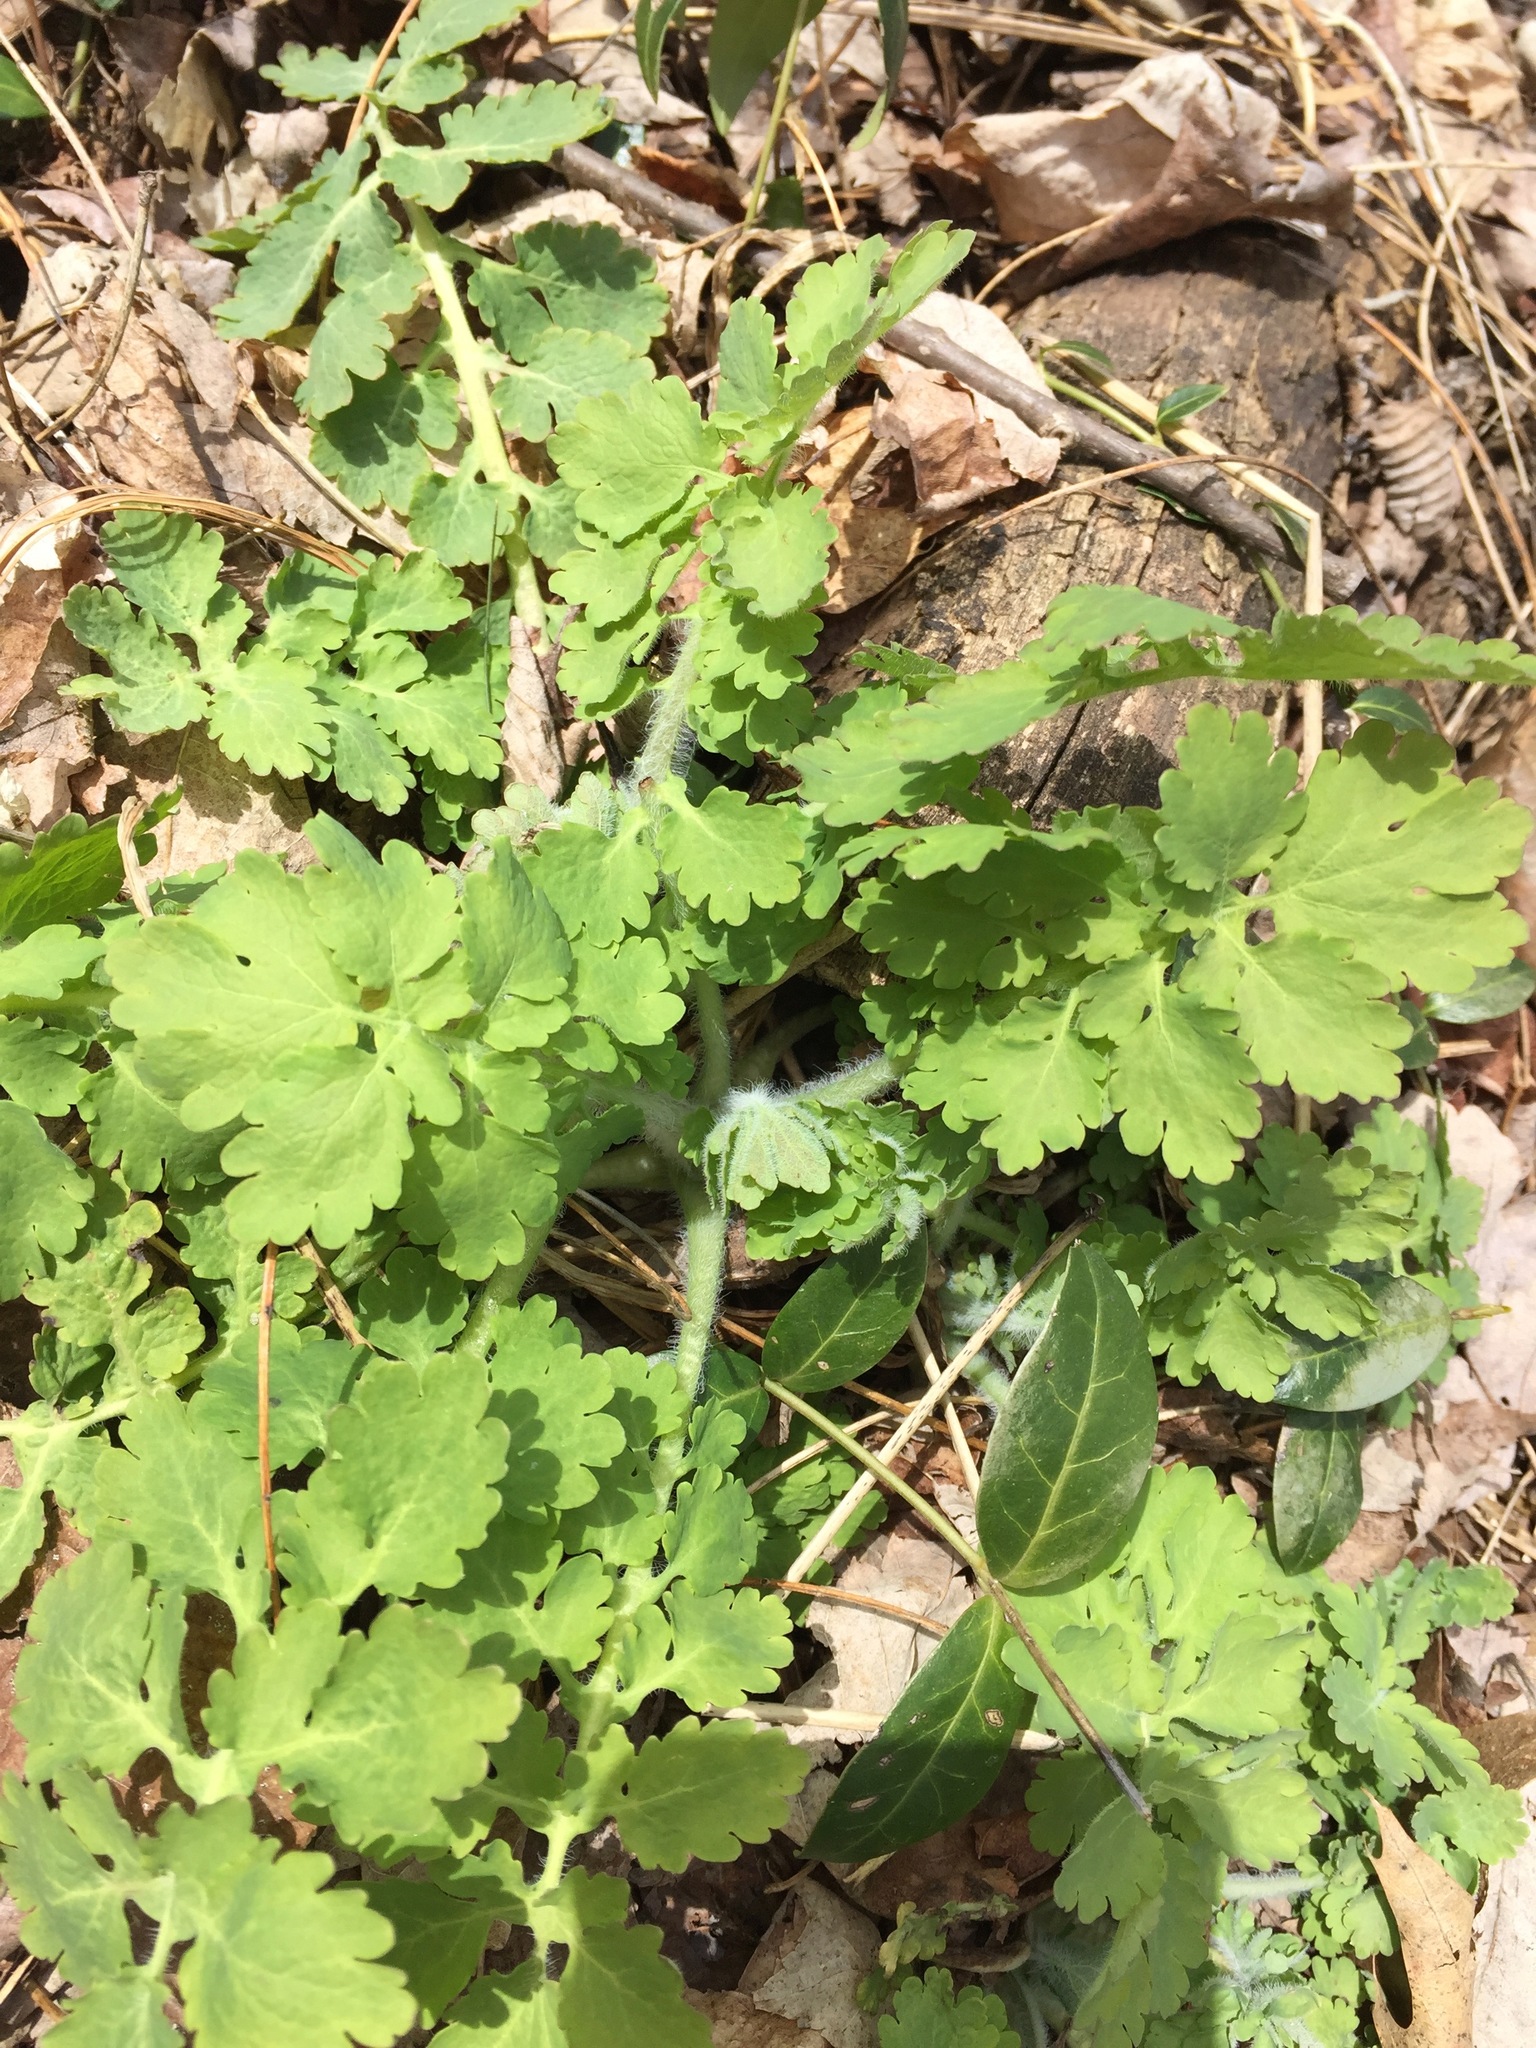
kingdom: Plantae
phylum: Tracheophyta
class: Magnoliopsida
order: Ranunculales
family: Papaveraceae
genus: Chelidonium
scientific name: Chelidonium majus
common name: Greater celandine
